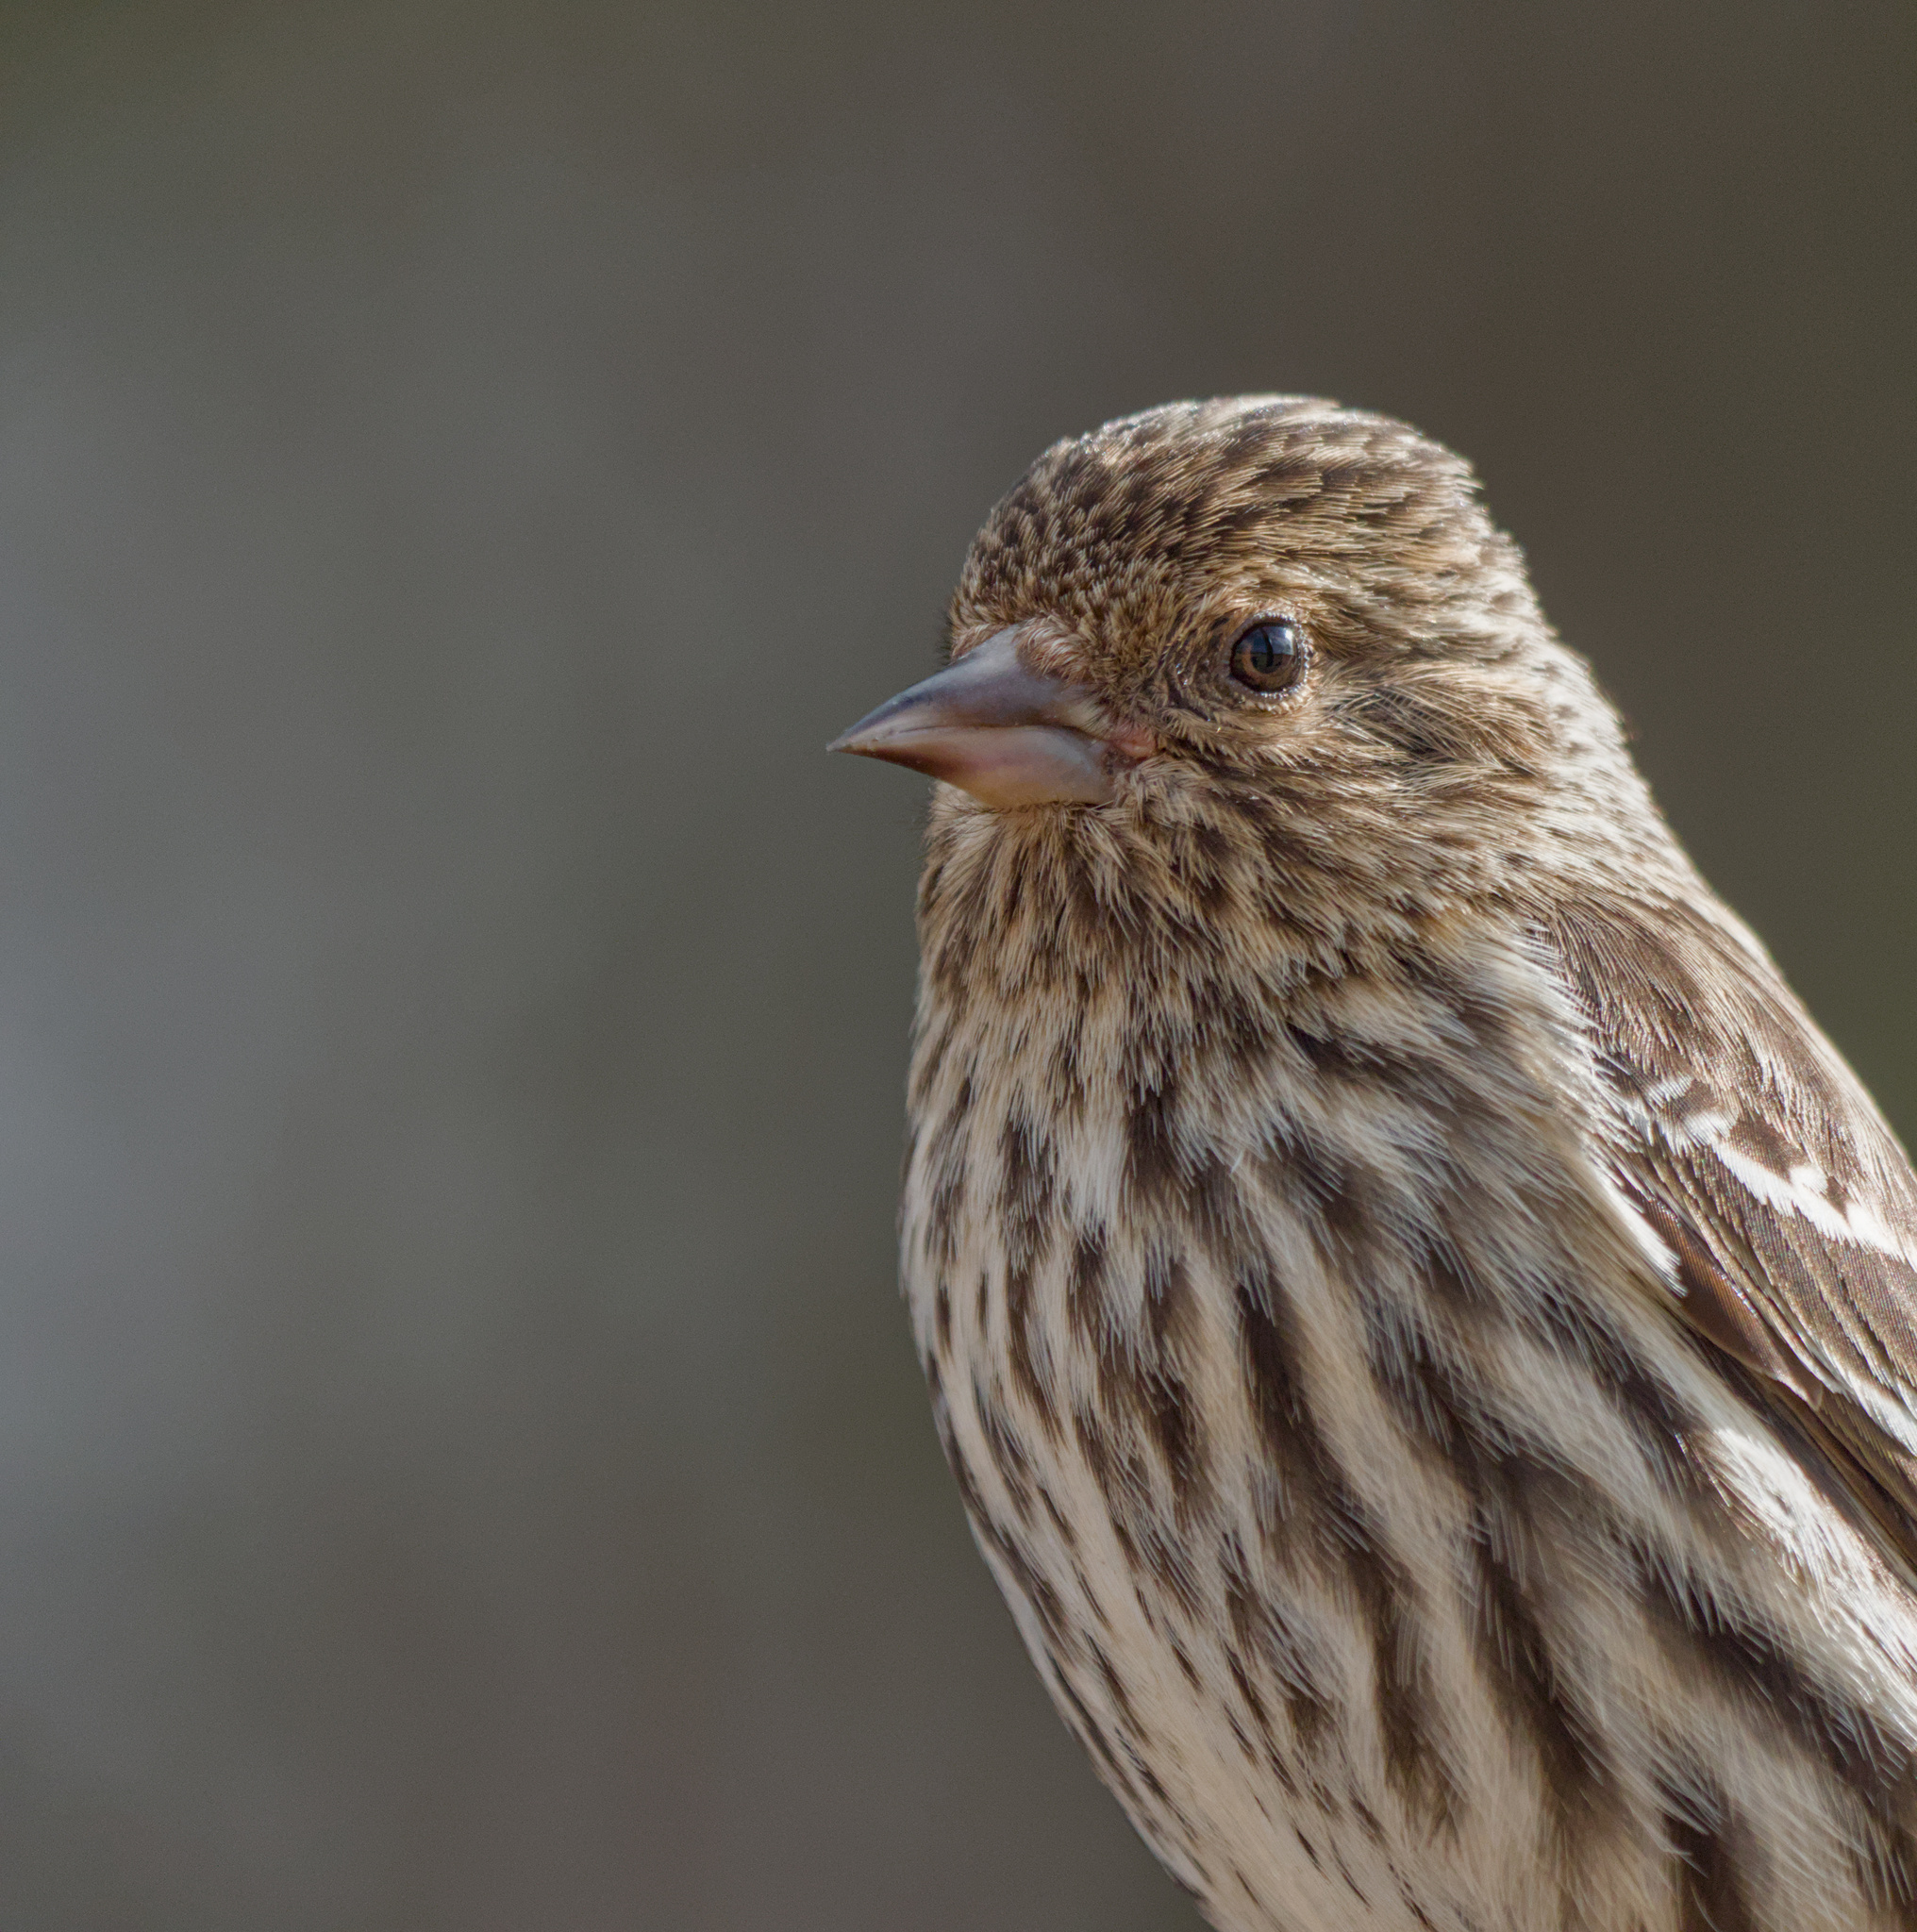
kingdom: Animalia
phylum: Chordata
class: Aves
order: Passeriformes
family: Fringillidae
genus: Spinus
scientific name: Spinus pinus
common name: Pine siskin
